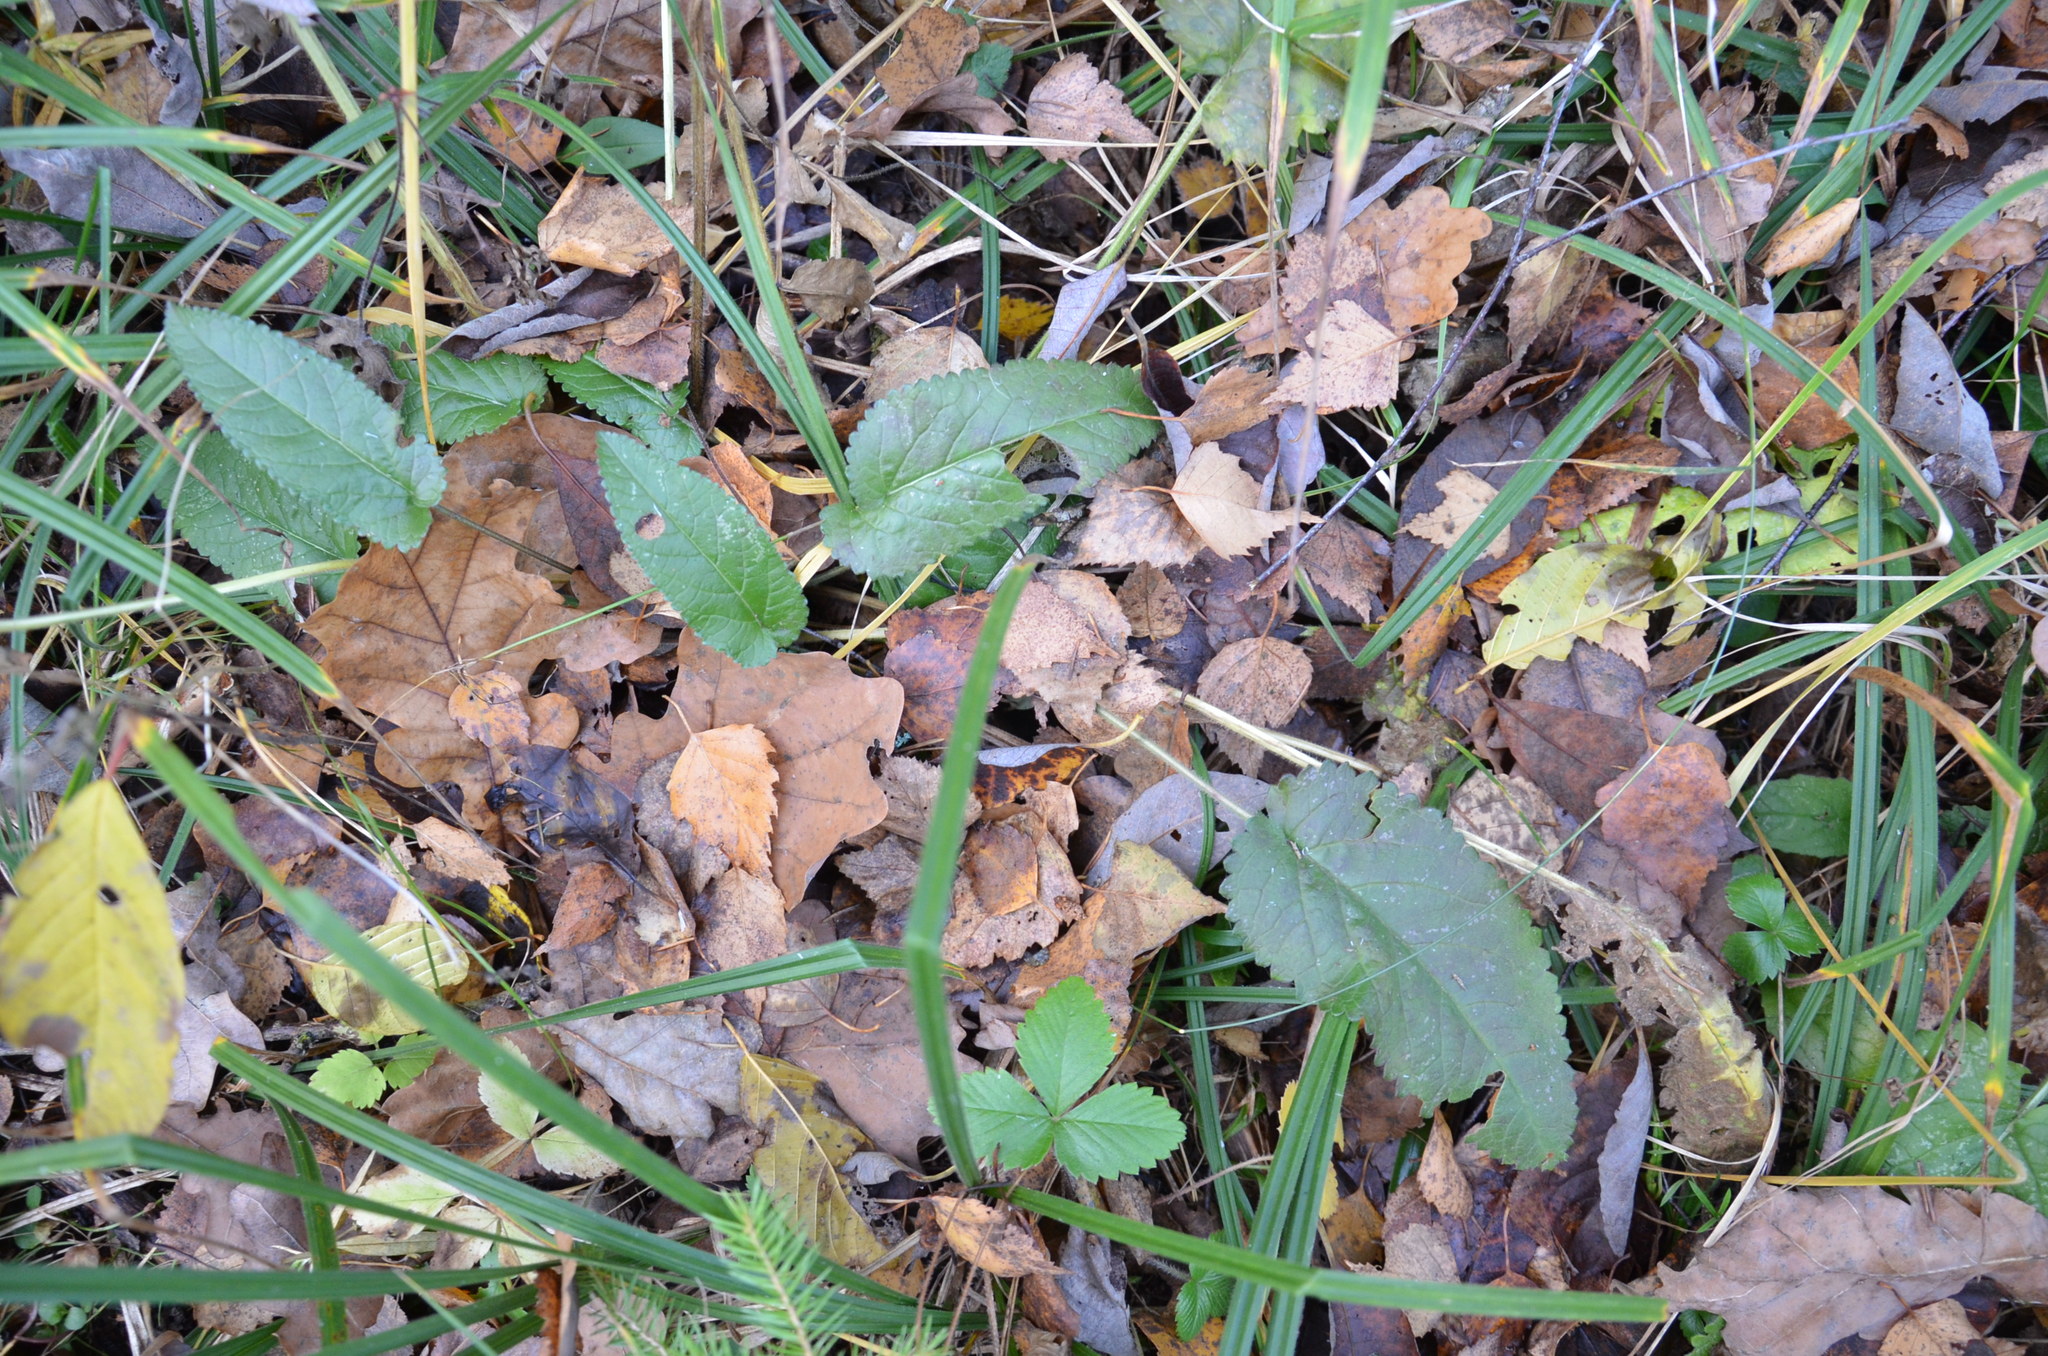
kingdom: Plantae
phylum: Tracheophyta
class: Magnoliopsida
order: Lamiales
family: Lamiaceae
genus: Betonica
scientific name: Betonica officinalis
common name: Bishop's-wort
